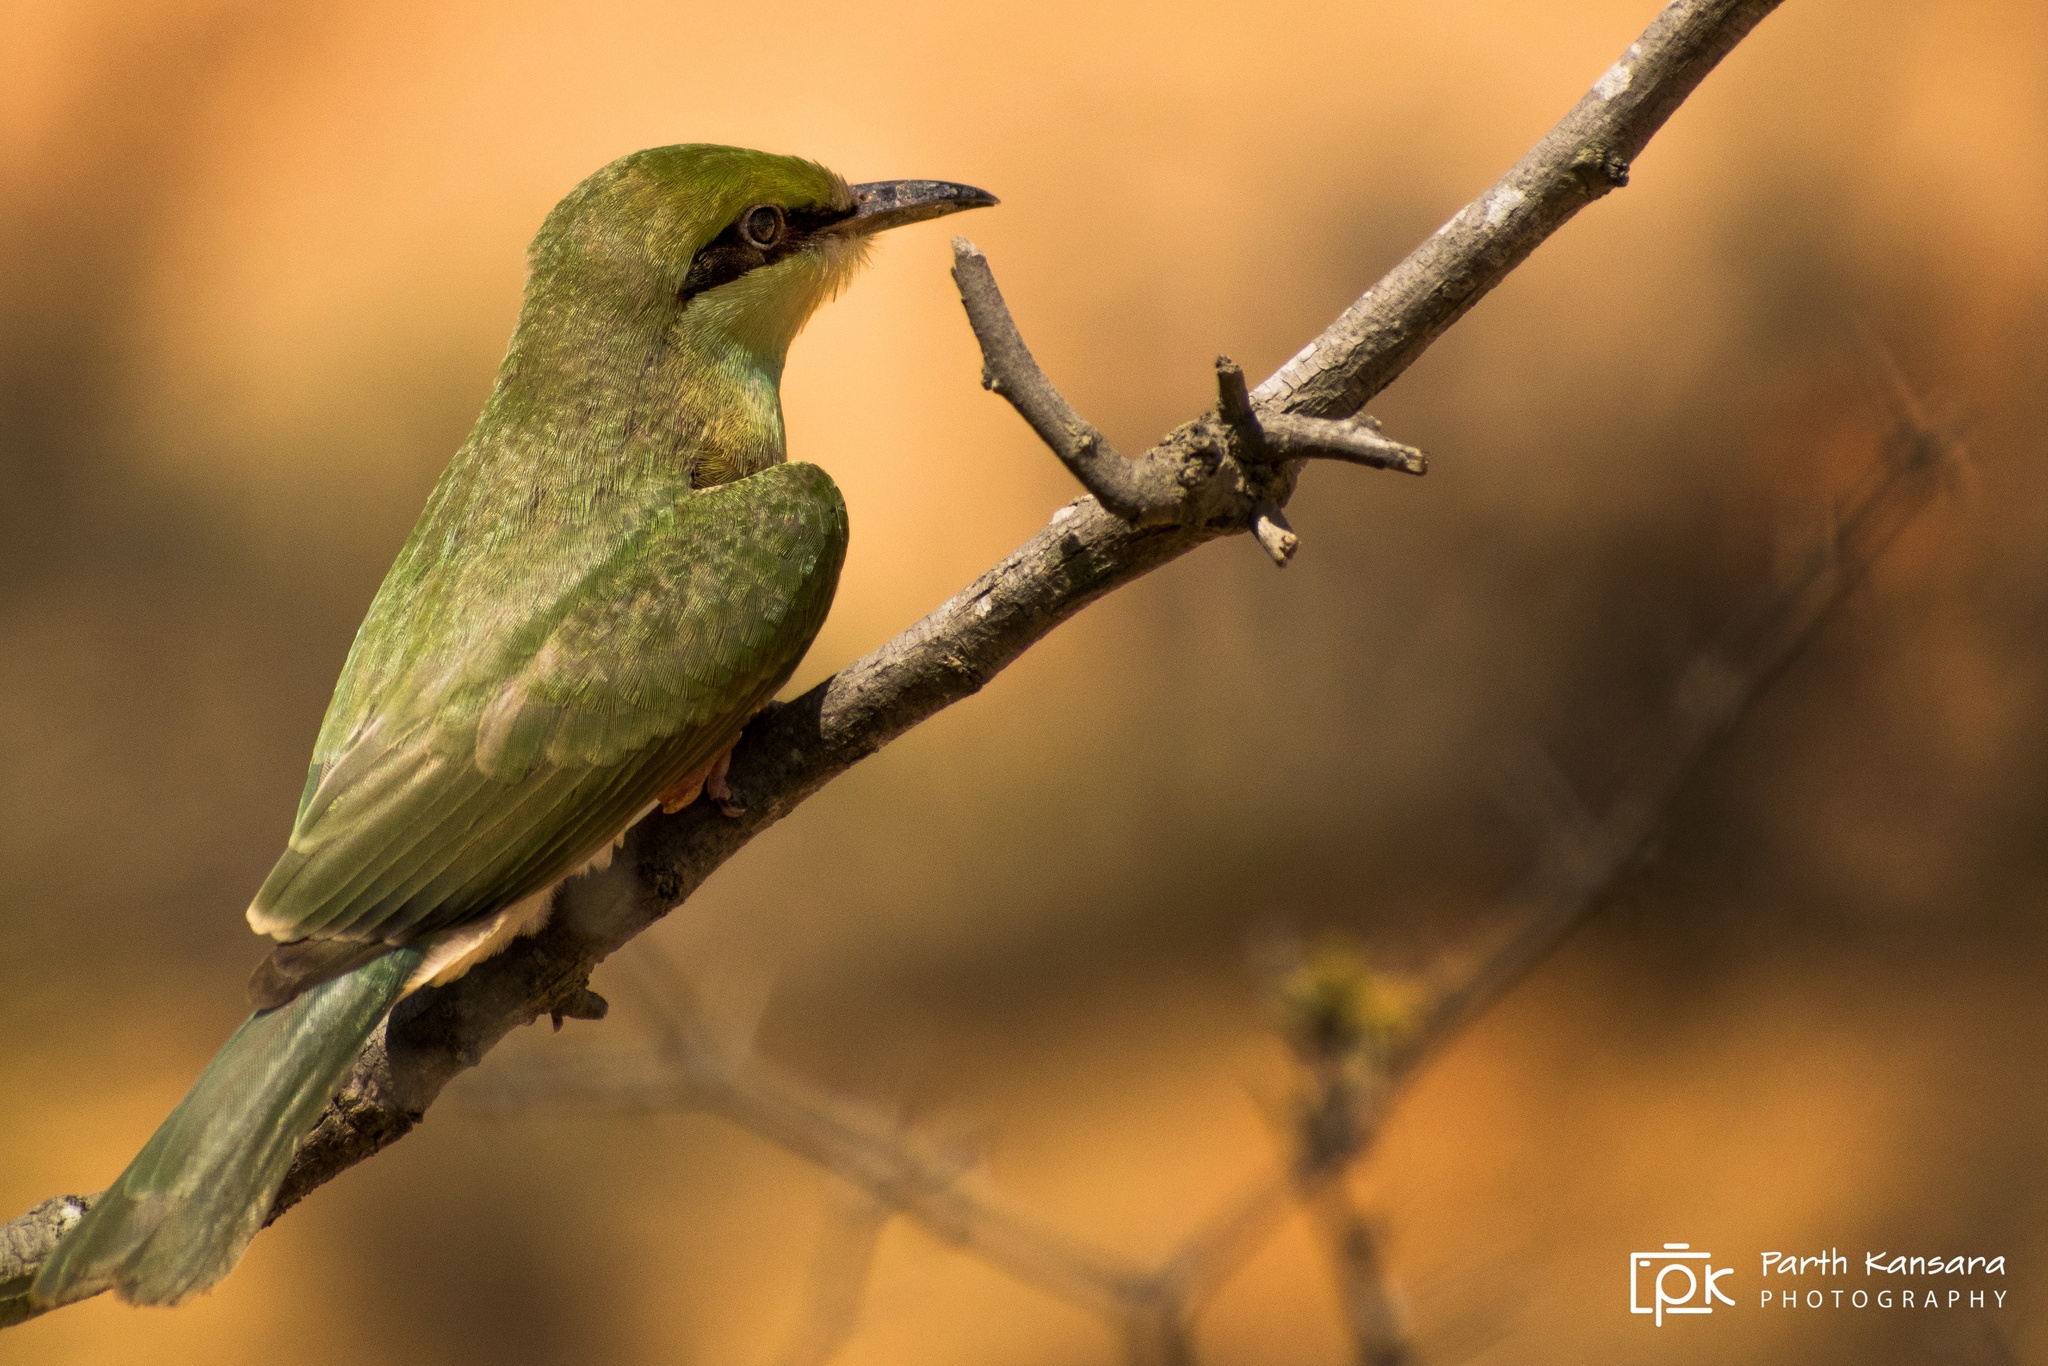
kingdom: Animalia
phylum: Chordata
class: Aves
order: Coraciiformes
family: Meropidae
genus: Merops
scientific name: Merops orientalis
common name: Green bee-eater
